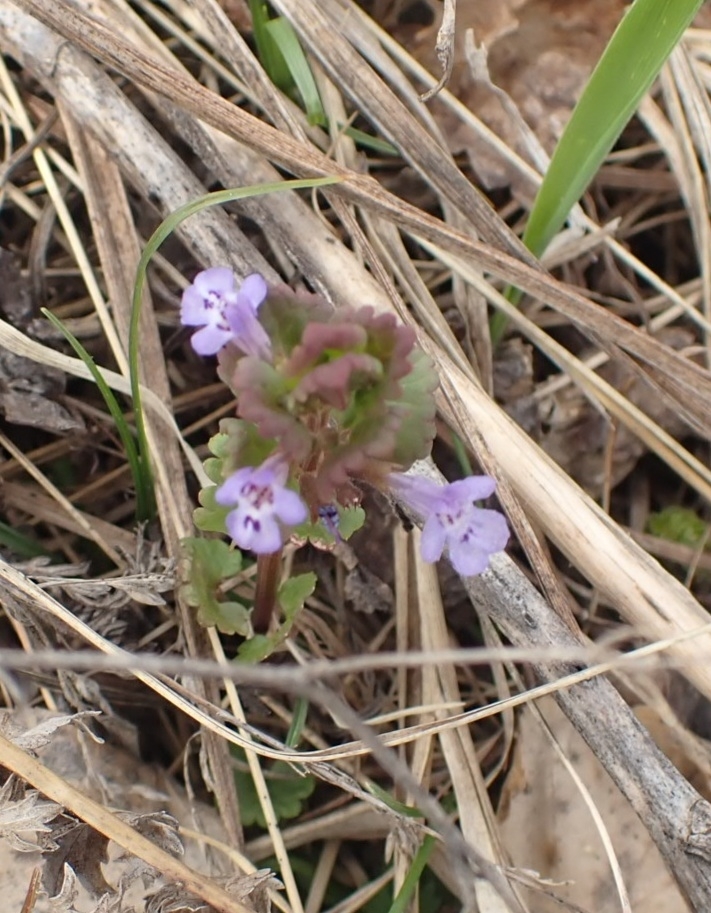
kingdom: Plantae
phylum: Tracheophyta
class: Magnoliopsida
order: Lamiales
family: Lamiaceae
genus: Glechoma
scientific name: Glechoma hederacea
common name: Ground ivy
